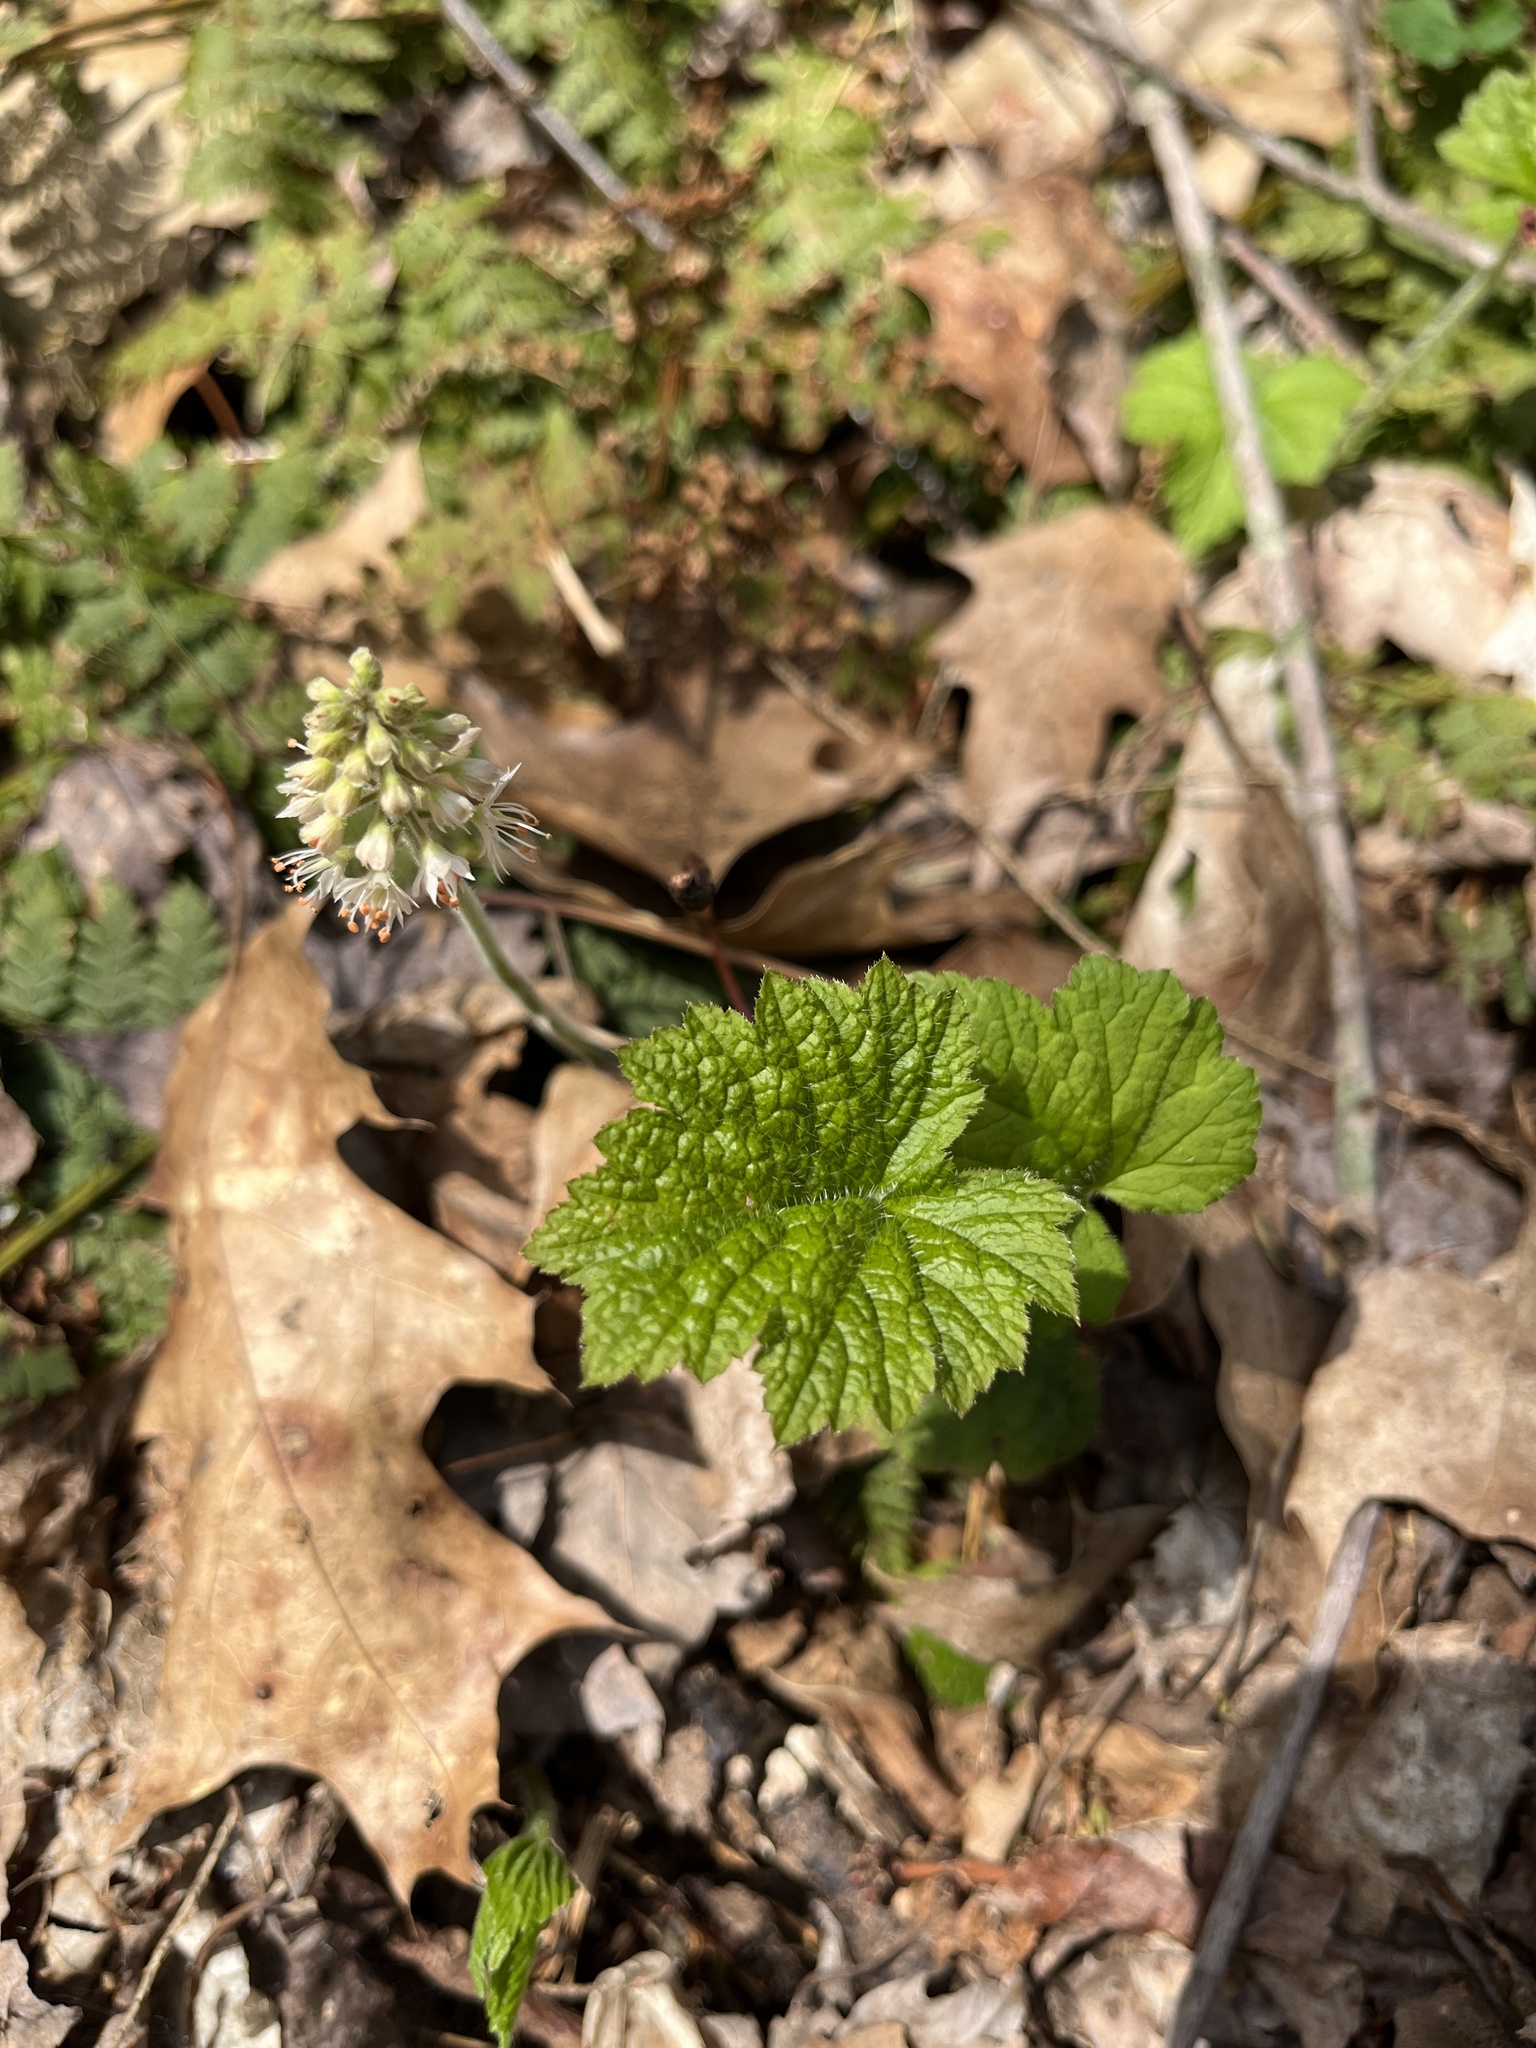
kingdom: Plantae
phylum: Tracheophyta
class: Magnoliopsida
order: Saxifragales
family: Saxifragaceae
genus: Tiarella
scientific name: Tiarella stolonifera
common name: Stoloniferous foamflower
